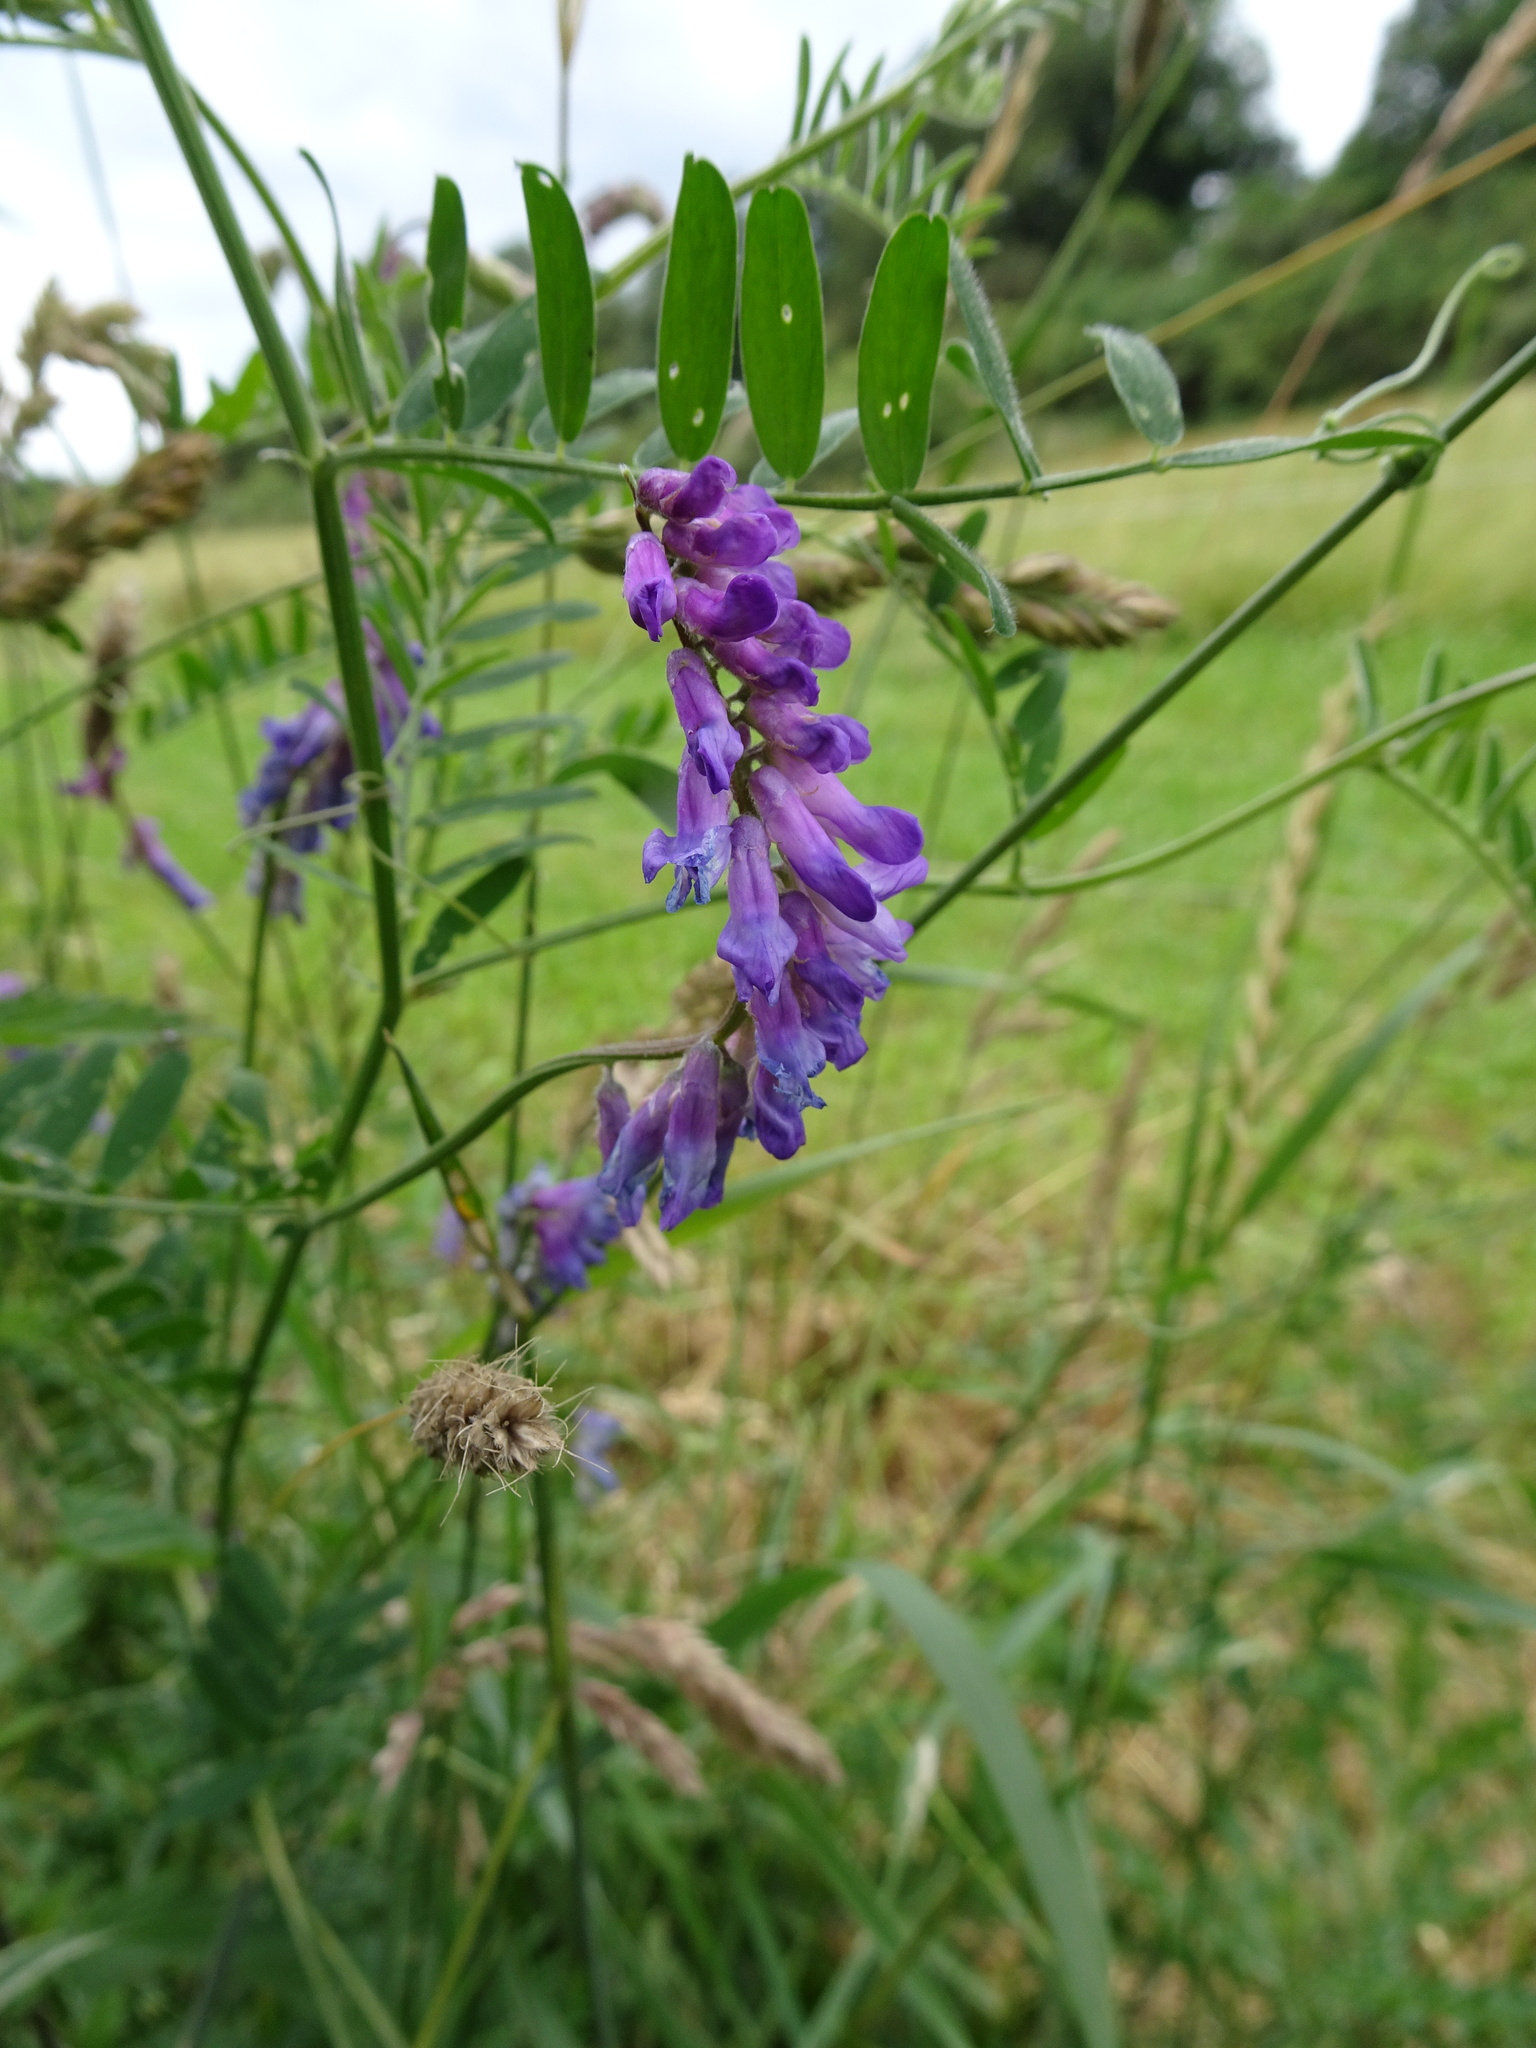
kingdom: Plantae
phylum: Tracheophyta
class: Magnoliopsida
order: Fabales
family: Fabaceae
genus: Vicia
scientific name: Vicia cracca
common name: Bird vetch
